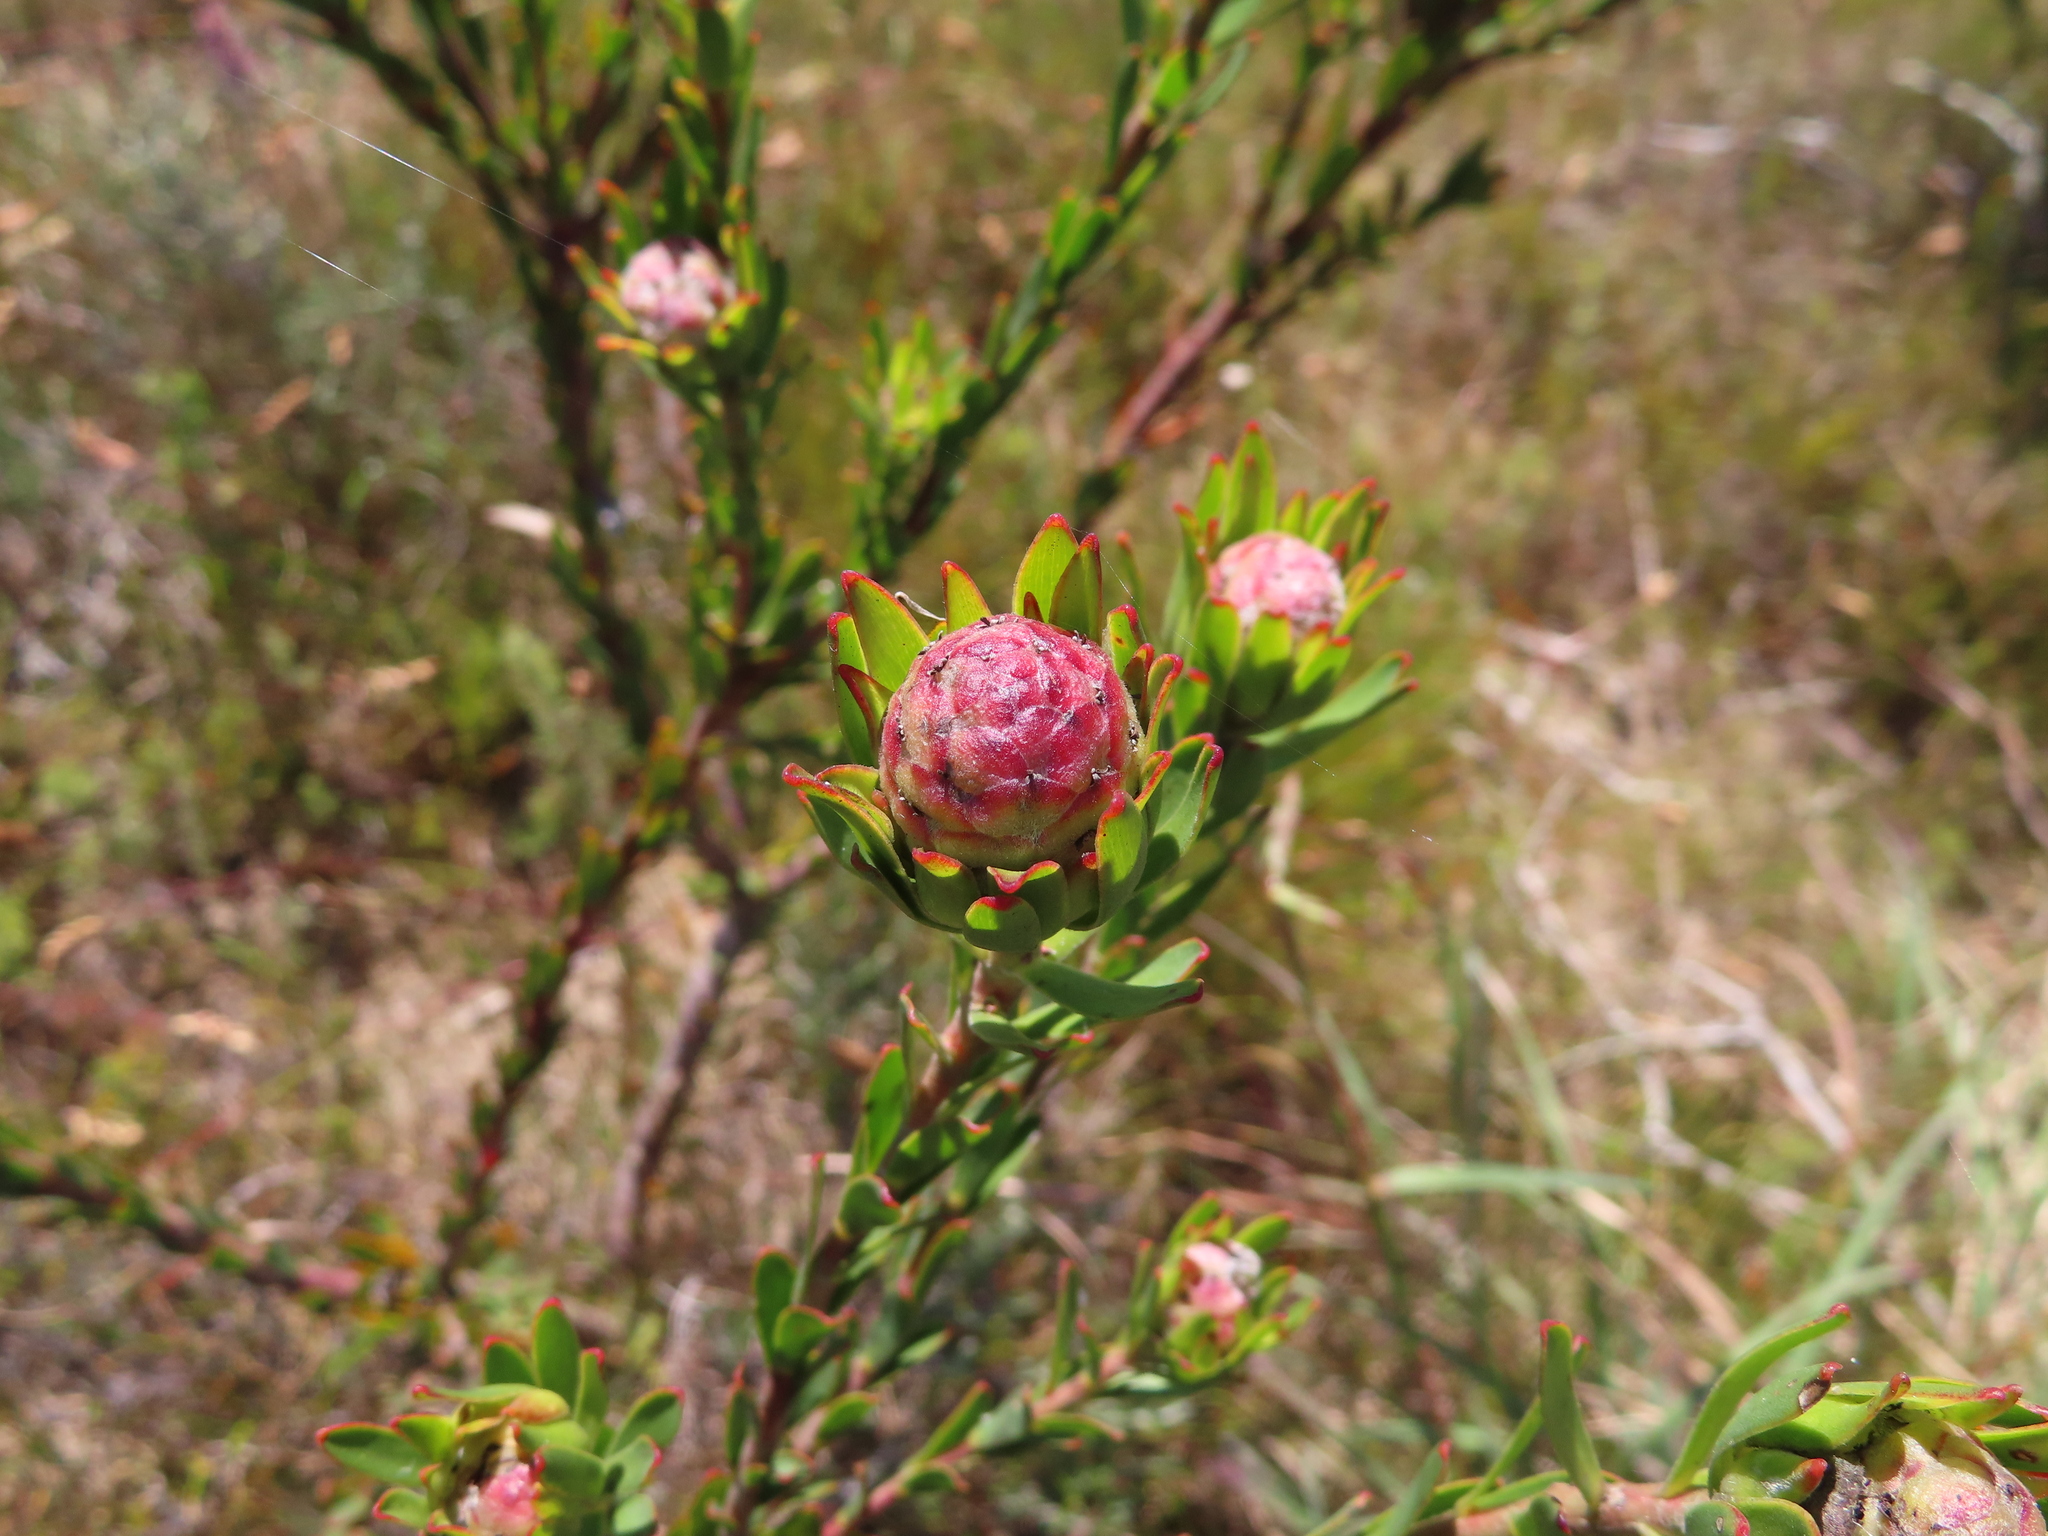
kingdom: Plantae
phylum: Tracheophyta
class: Magnoliopsida
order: Proteales
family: Proteaceae
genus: Leucadendron
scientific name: Leucadendron stelligerum
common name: Agulhas conebush
